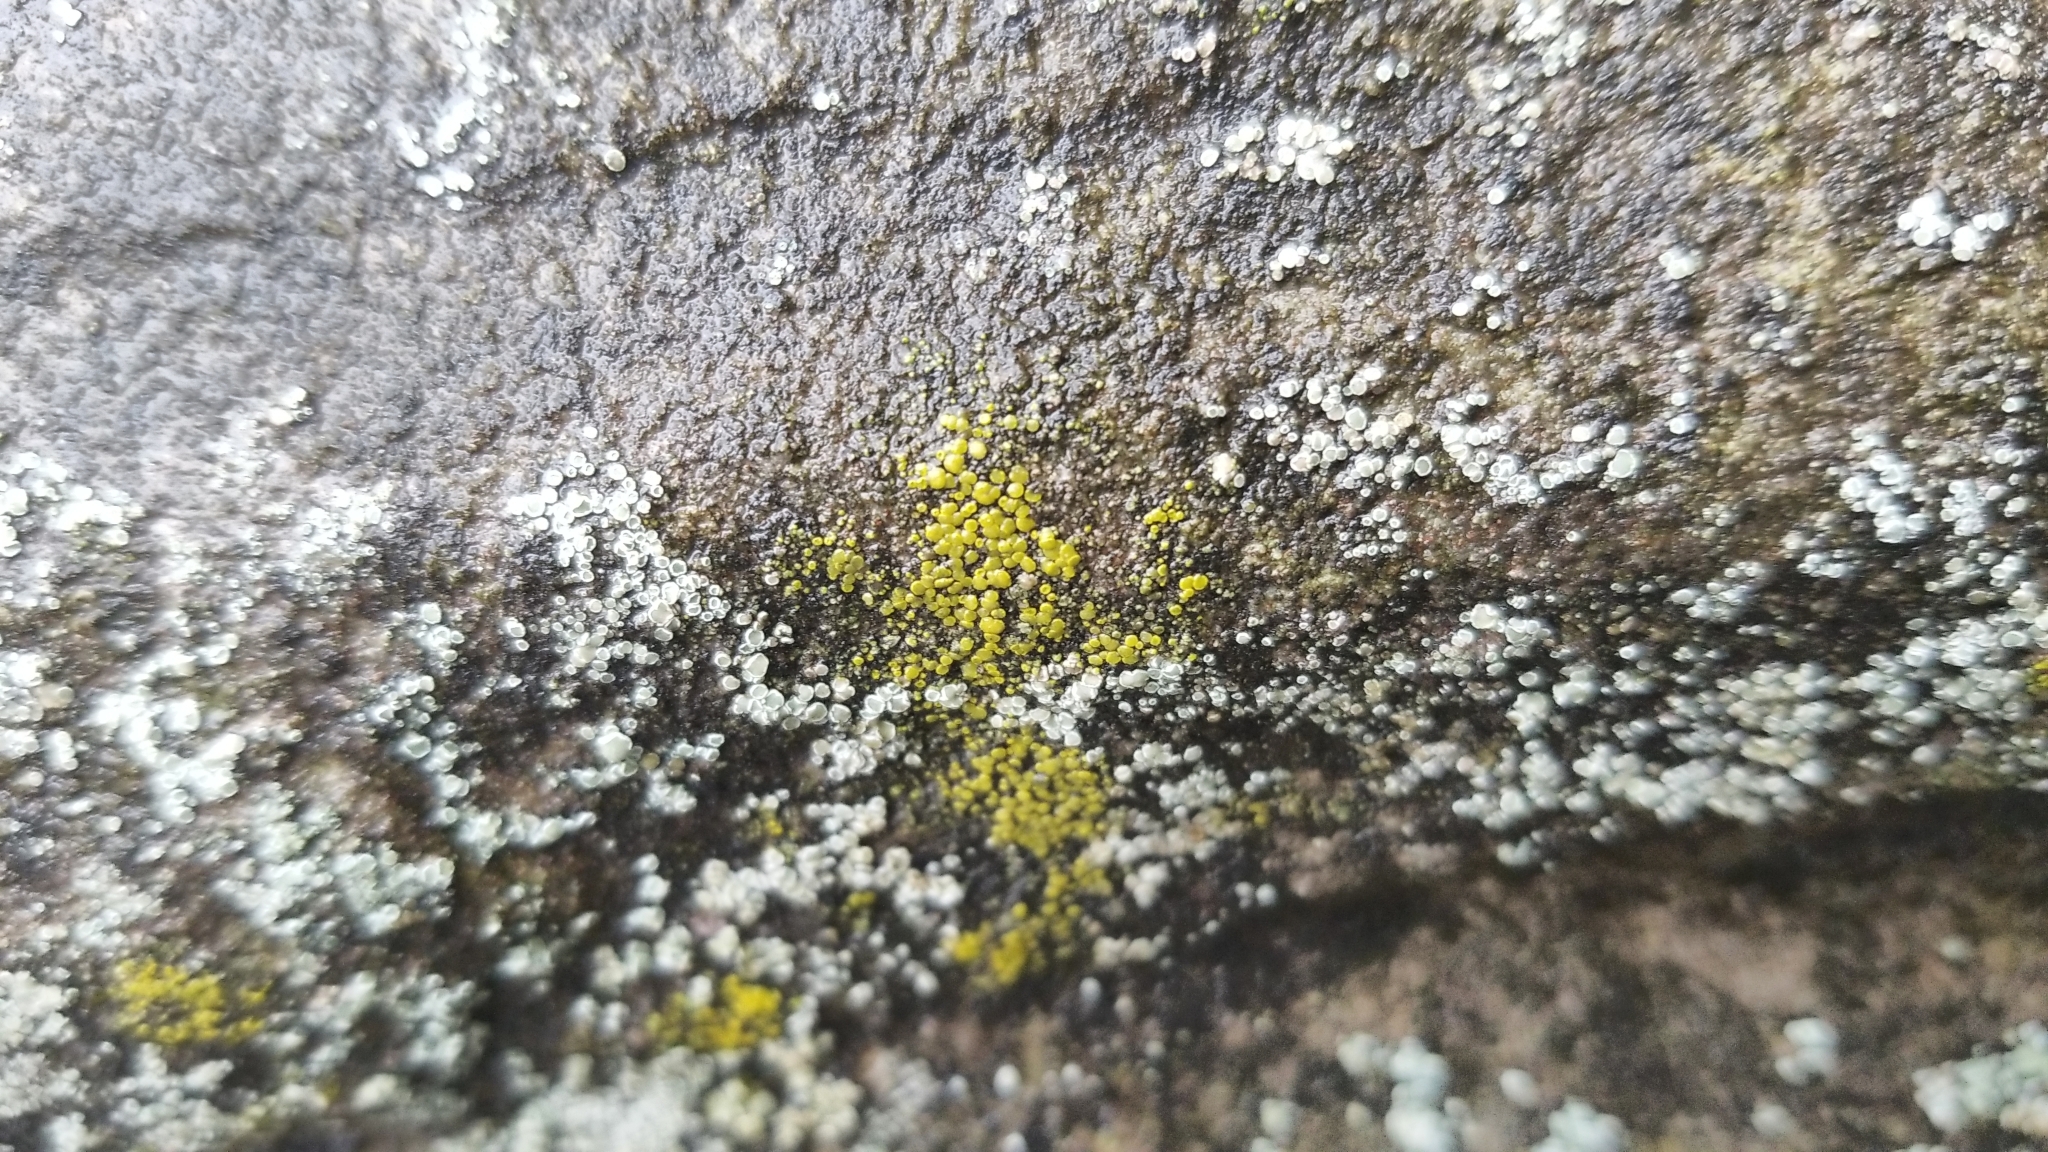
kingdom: Fungi
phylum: Ascomycota
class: Candelariomycetes
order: Candelariales
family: Candelariaceae
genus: Candelariella
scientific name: Candelariella aurella
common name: Hidden goldspeck lichen
